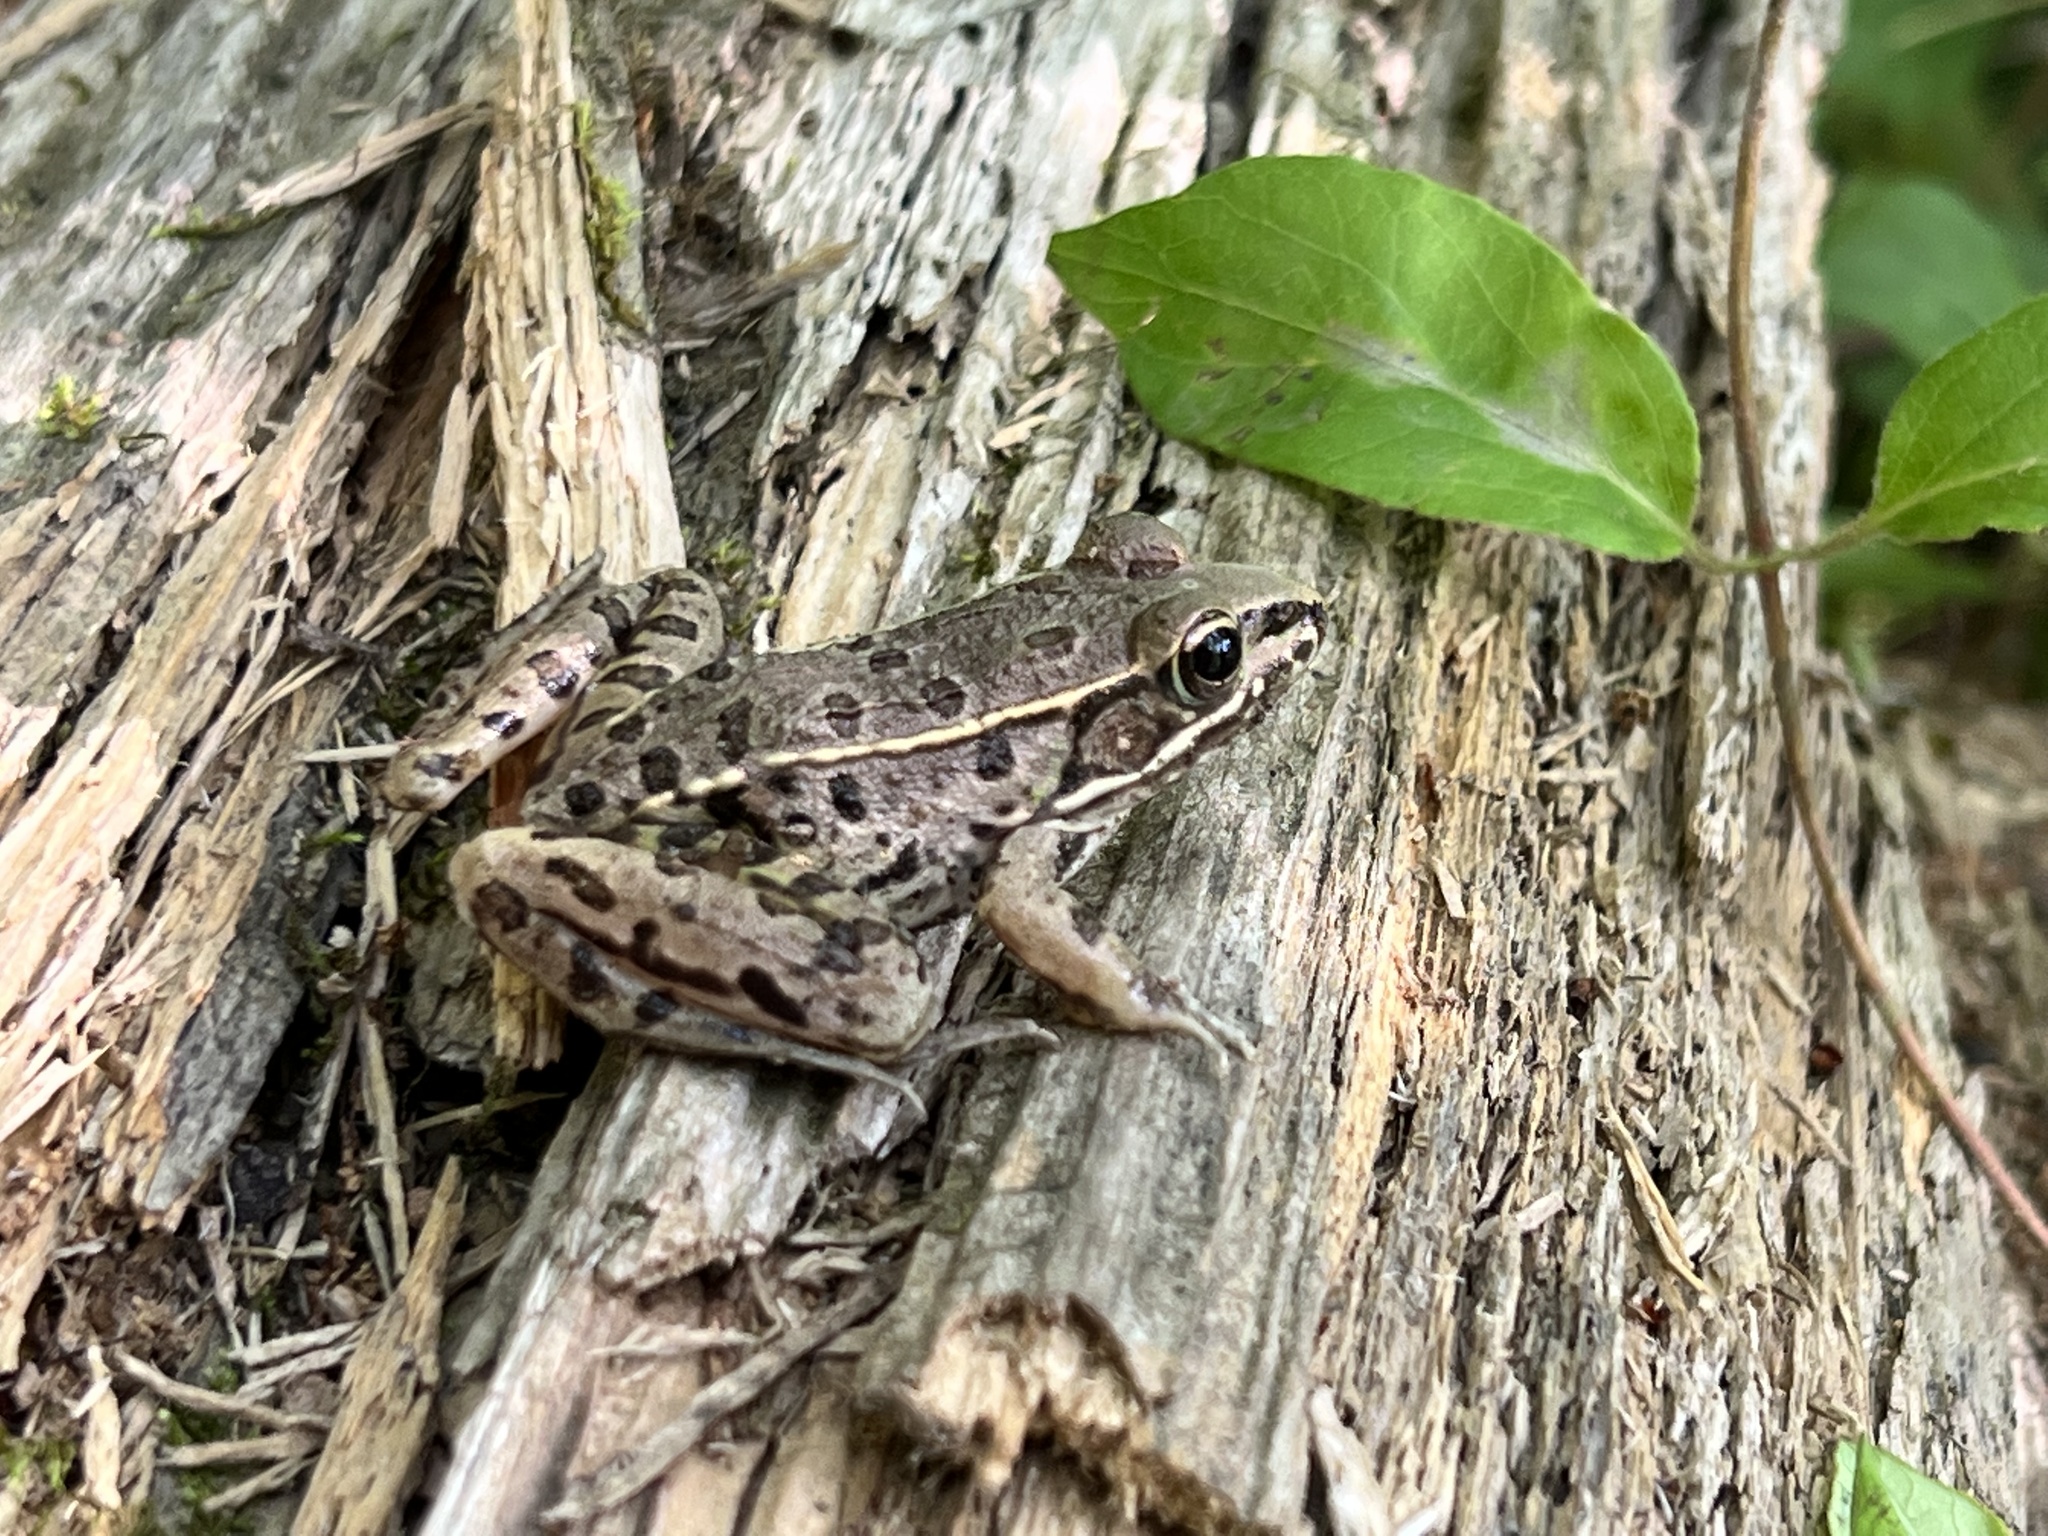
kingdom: Animalia
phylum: Chordata
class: Amphibia
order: Anura
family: Ranidae
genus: Lithobates
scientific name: Lithobates sphenocephalus
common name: Southern leopard frog
